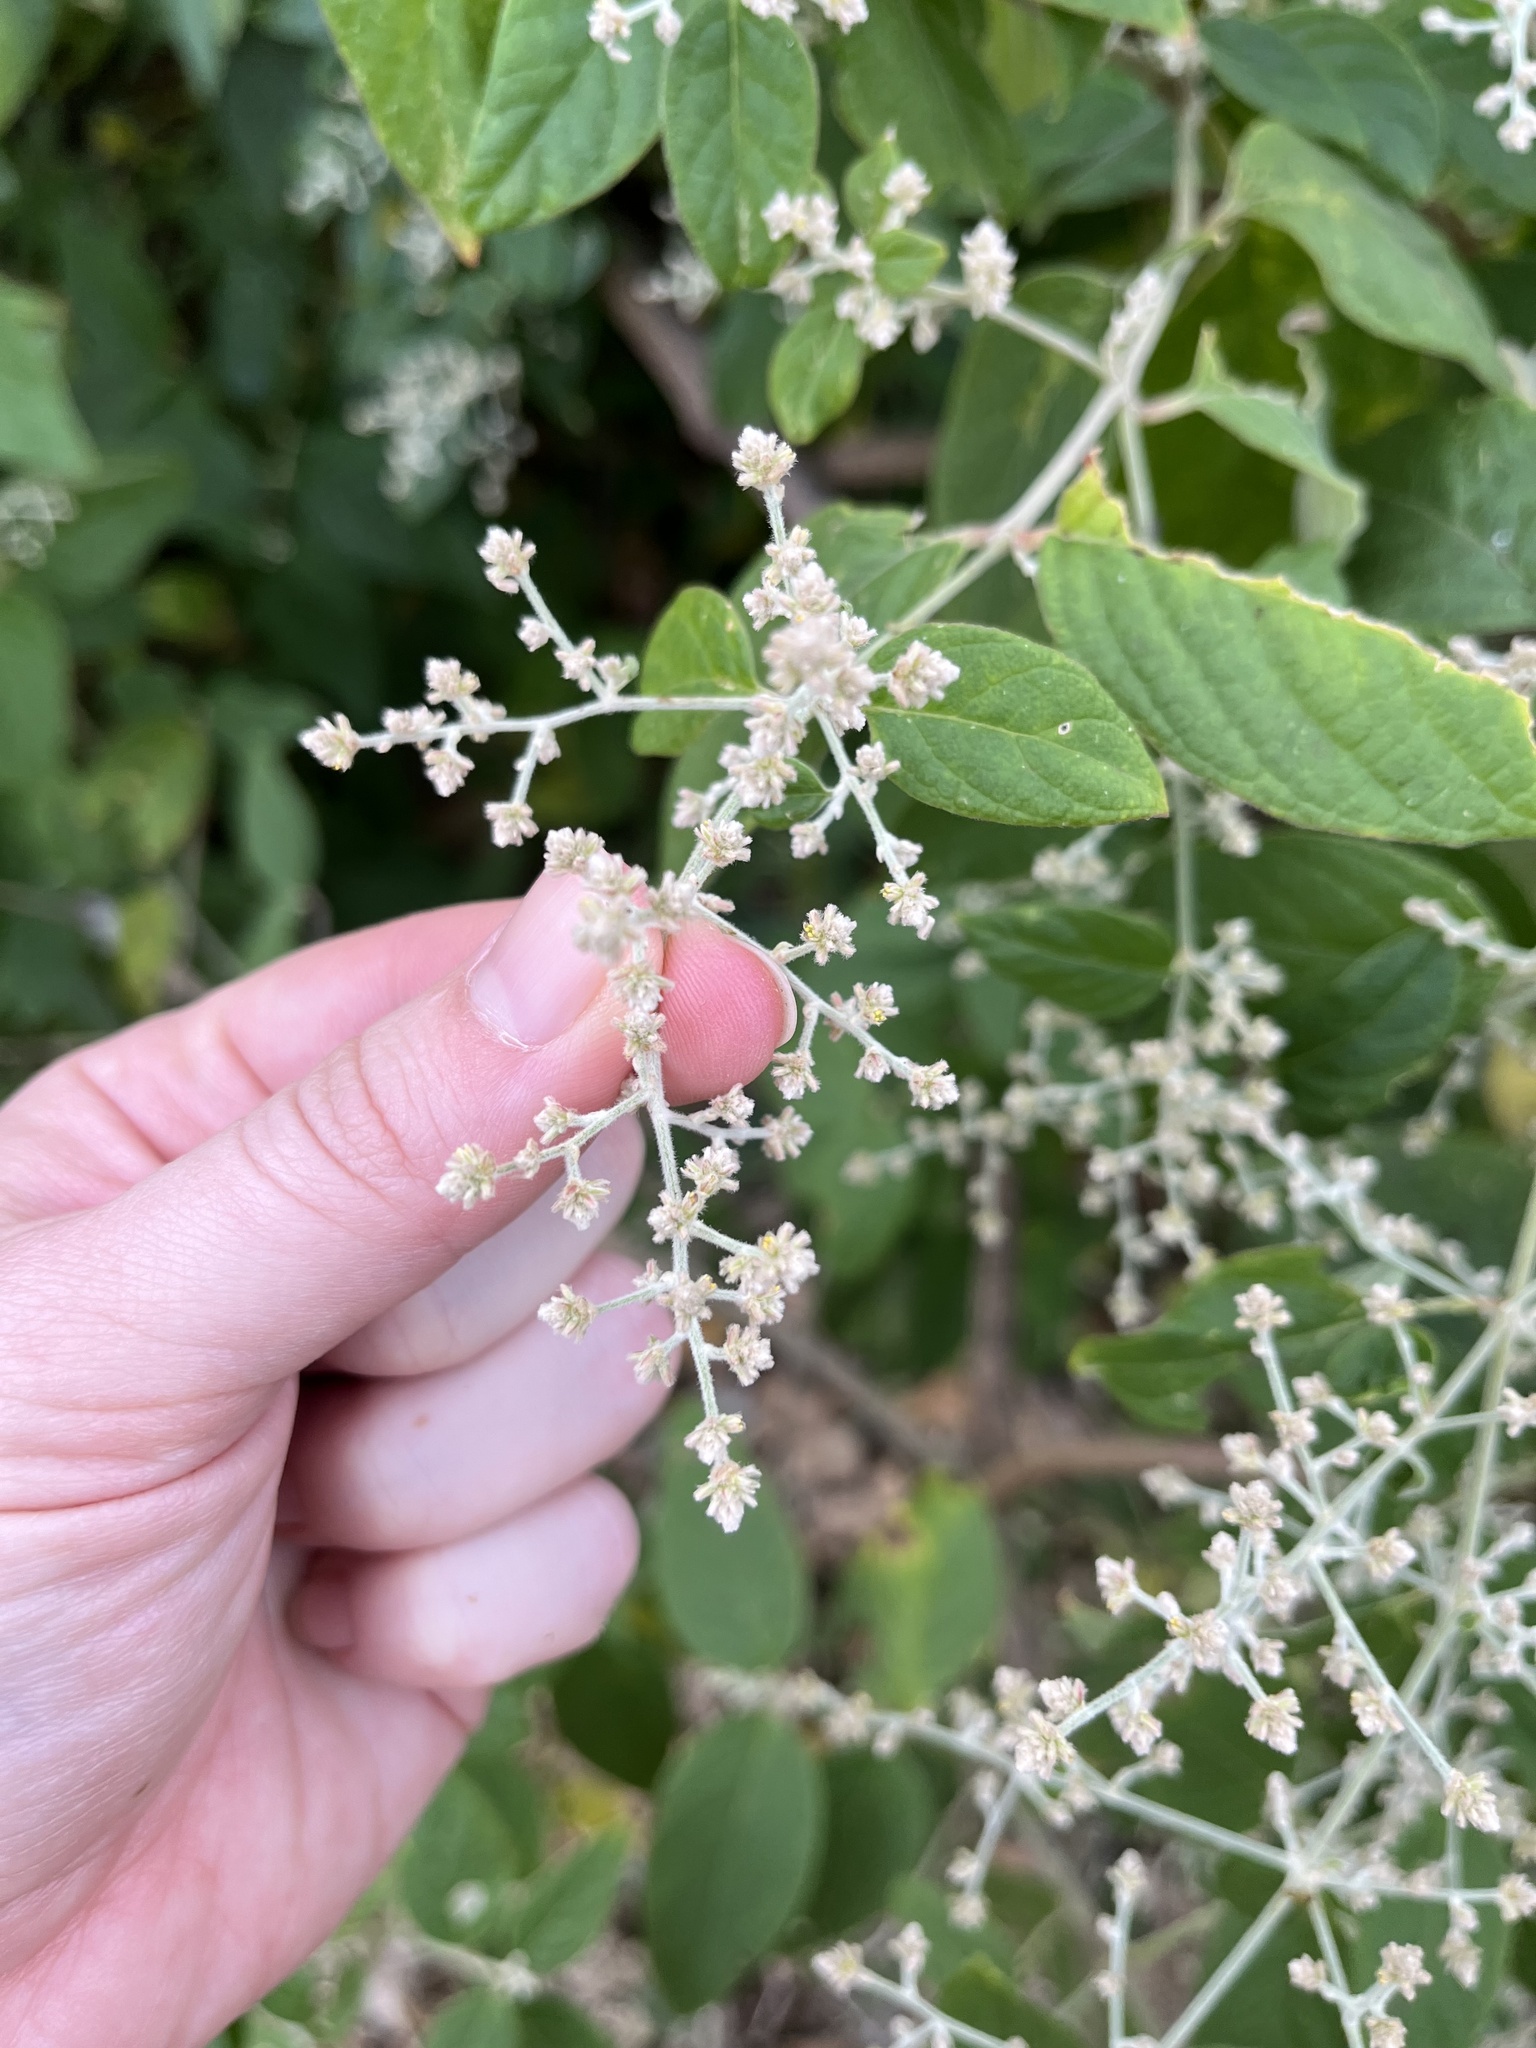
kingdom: Plantae
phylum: Tracheophyta
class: Magnoliopsida
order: Caryophyllales
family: Amaranthaceae
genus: Iresine
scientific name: Iresine latifolia
